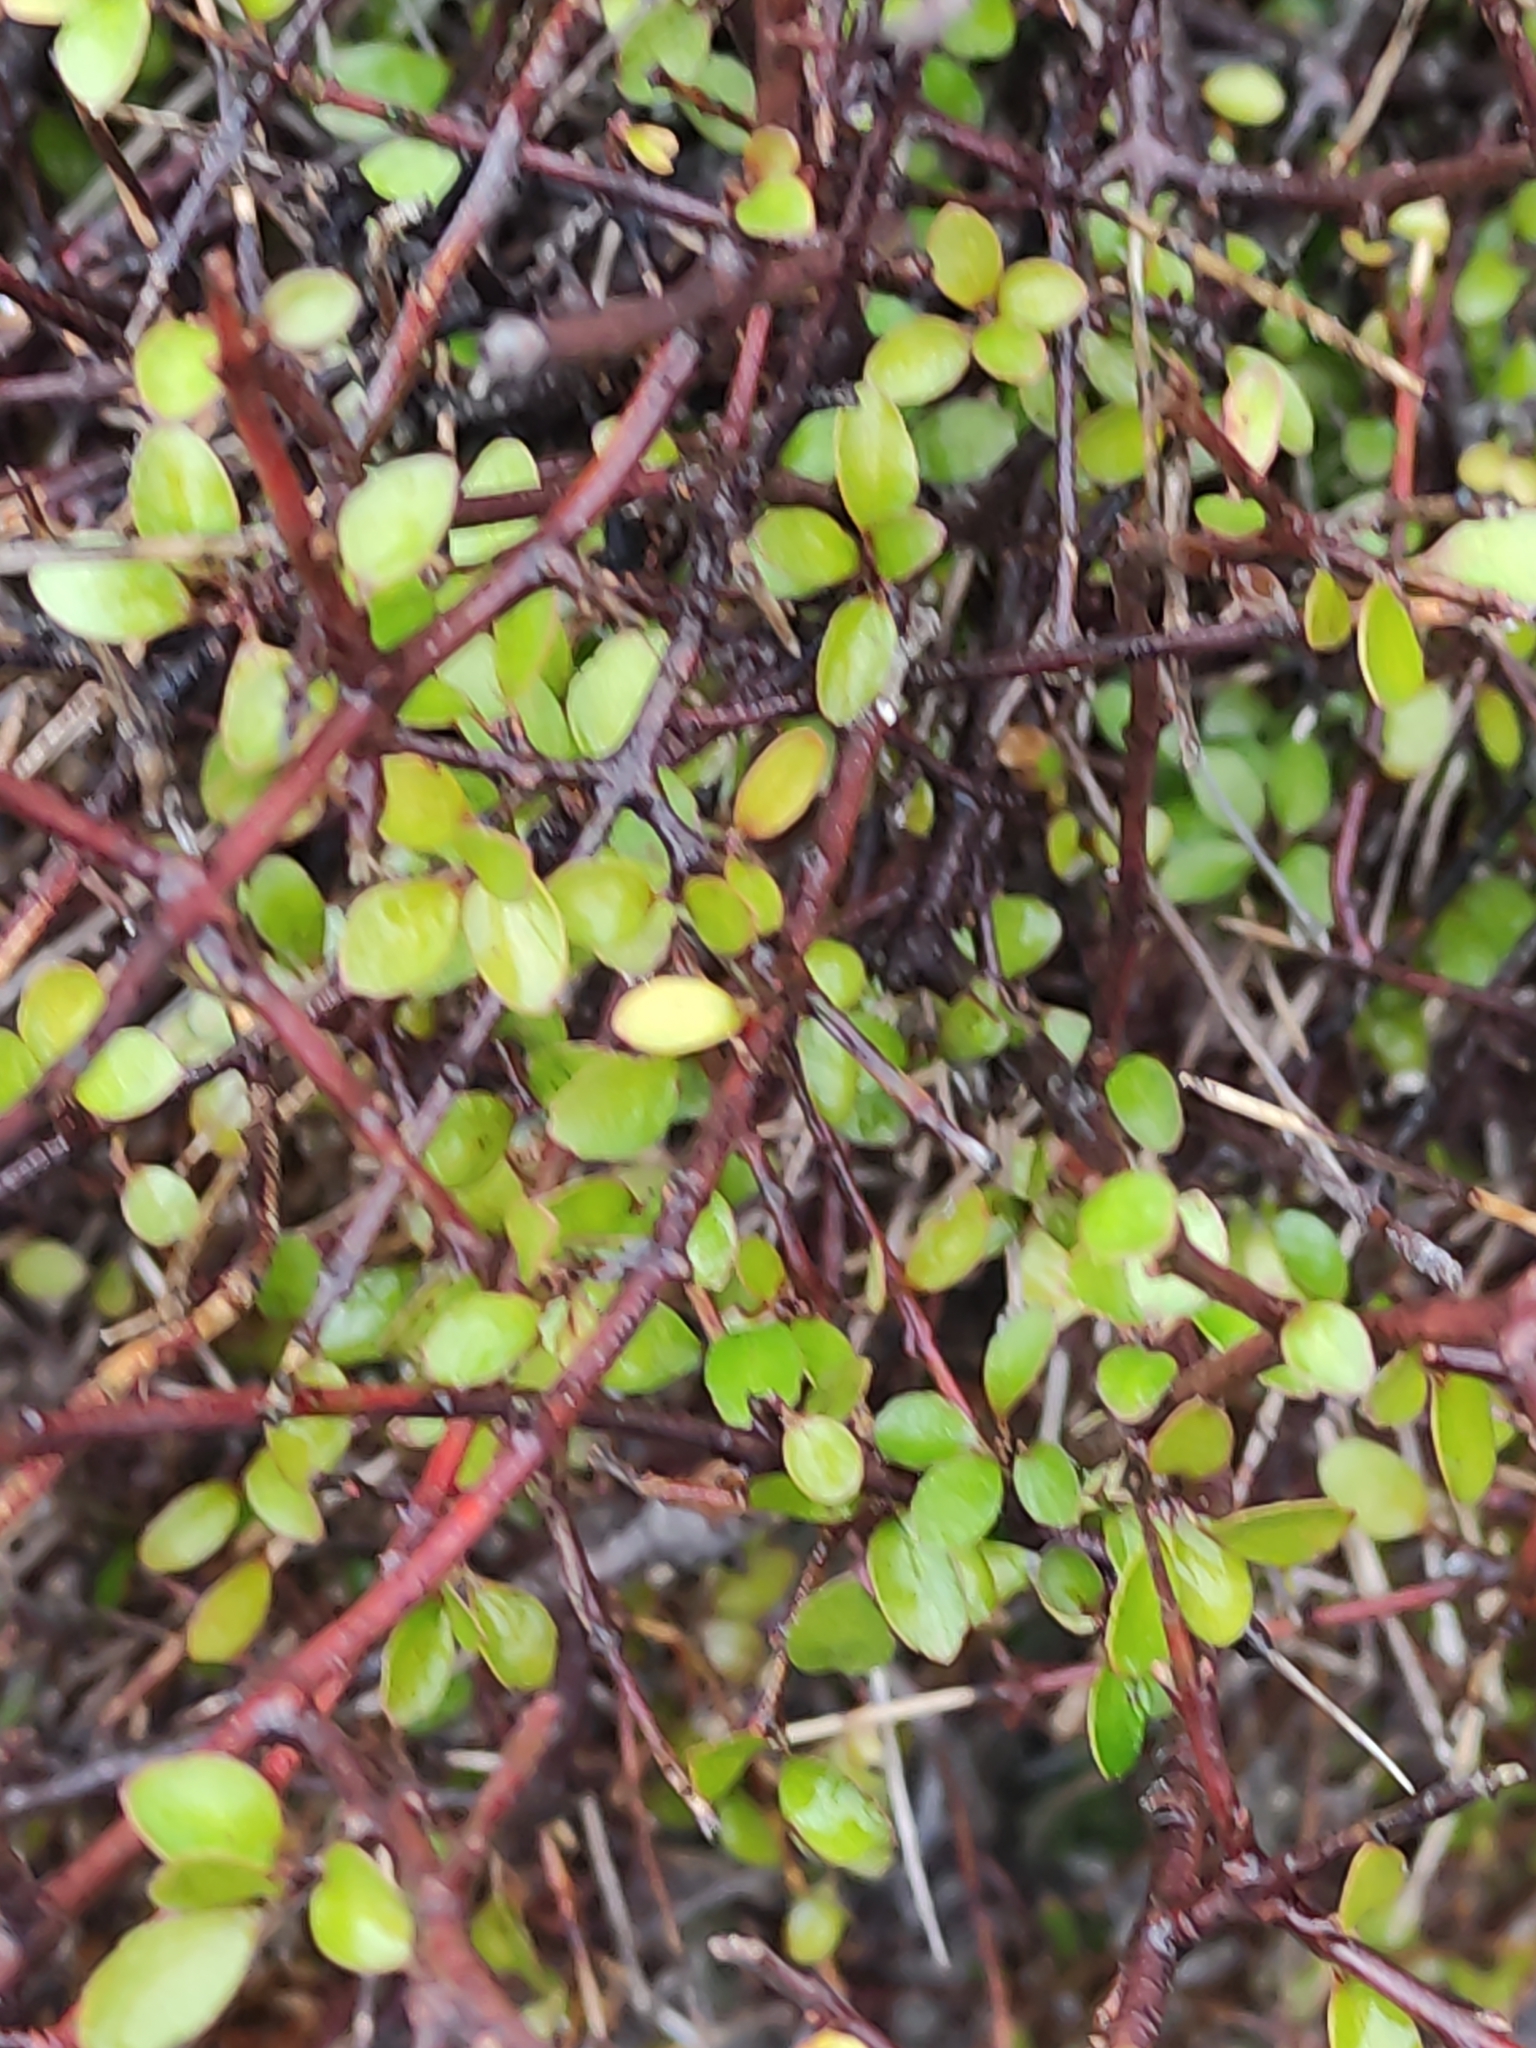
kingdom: Plantae
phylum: Tracheophyta
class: Magnoliopsida
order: Oxalidales
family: Elaeocarpaceae
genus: Aristotelia
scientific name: Aristotelia fruticosa
